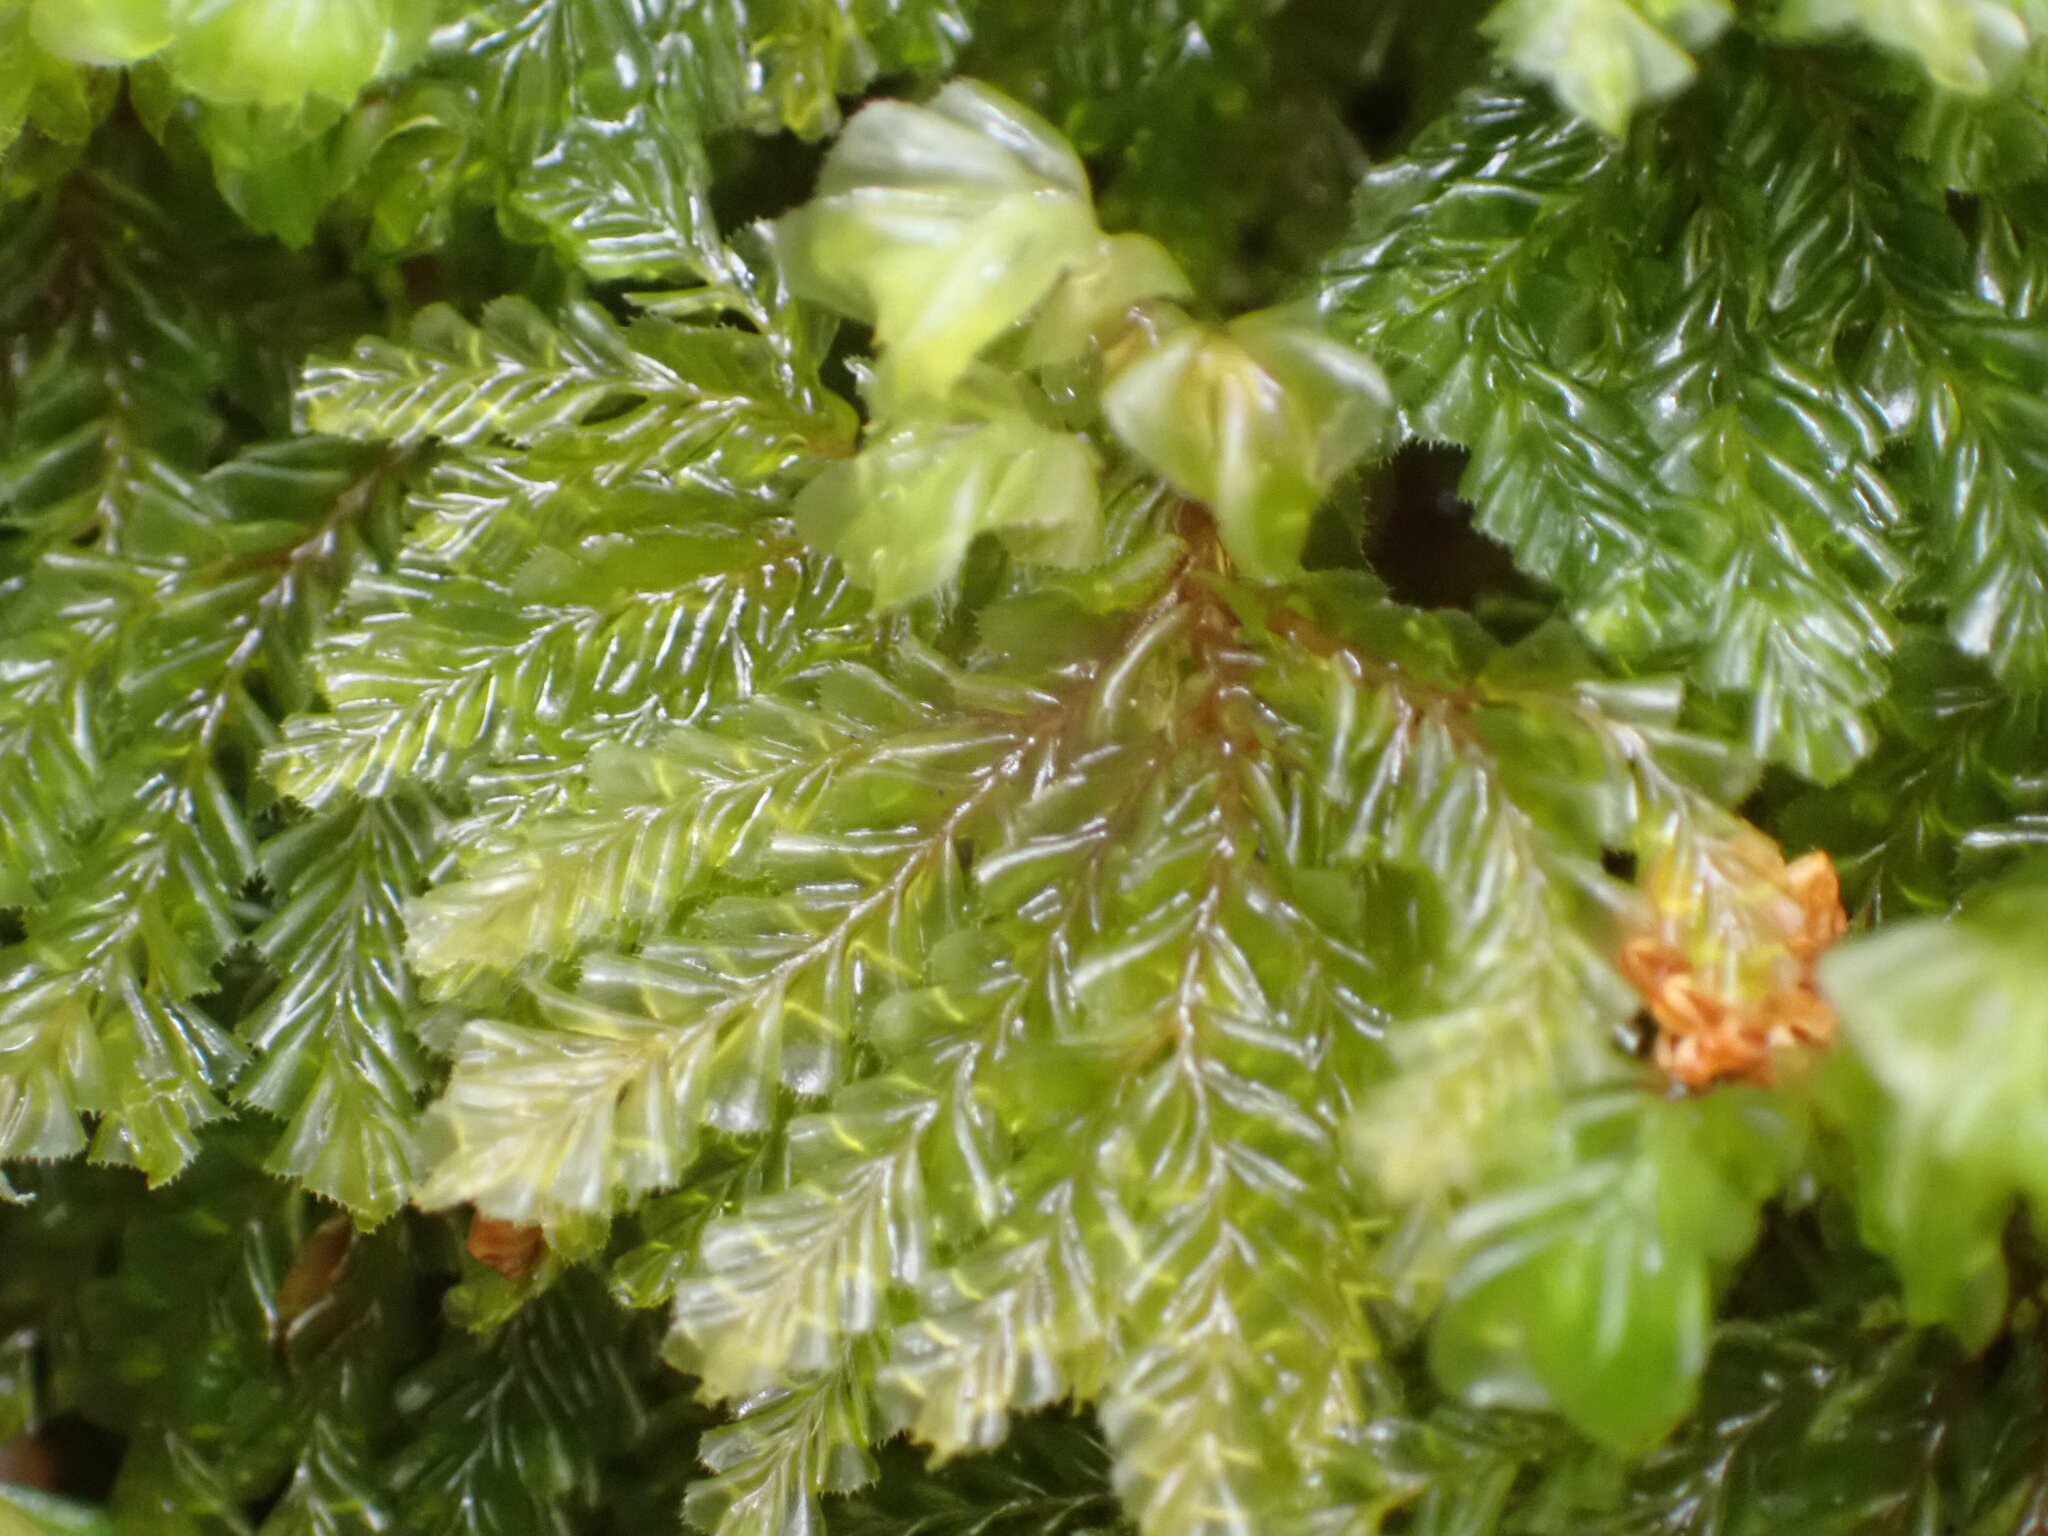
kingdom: Plantae
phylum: Marchantiophyta
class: Jungermanniopsida
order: Jungermanniales
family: Plagiochilaceae
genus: Plagiochila
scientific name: Plagiochila gigantea
